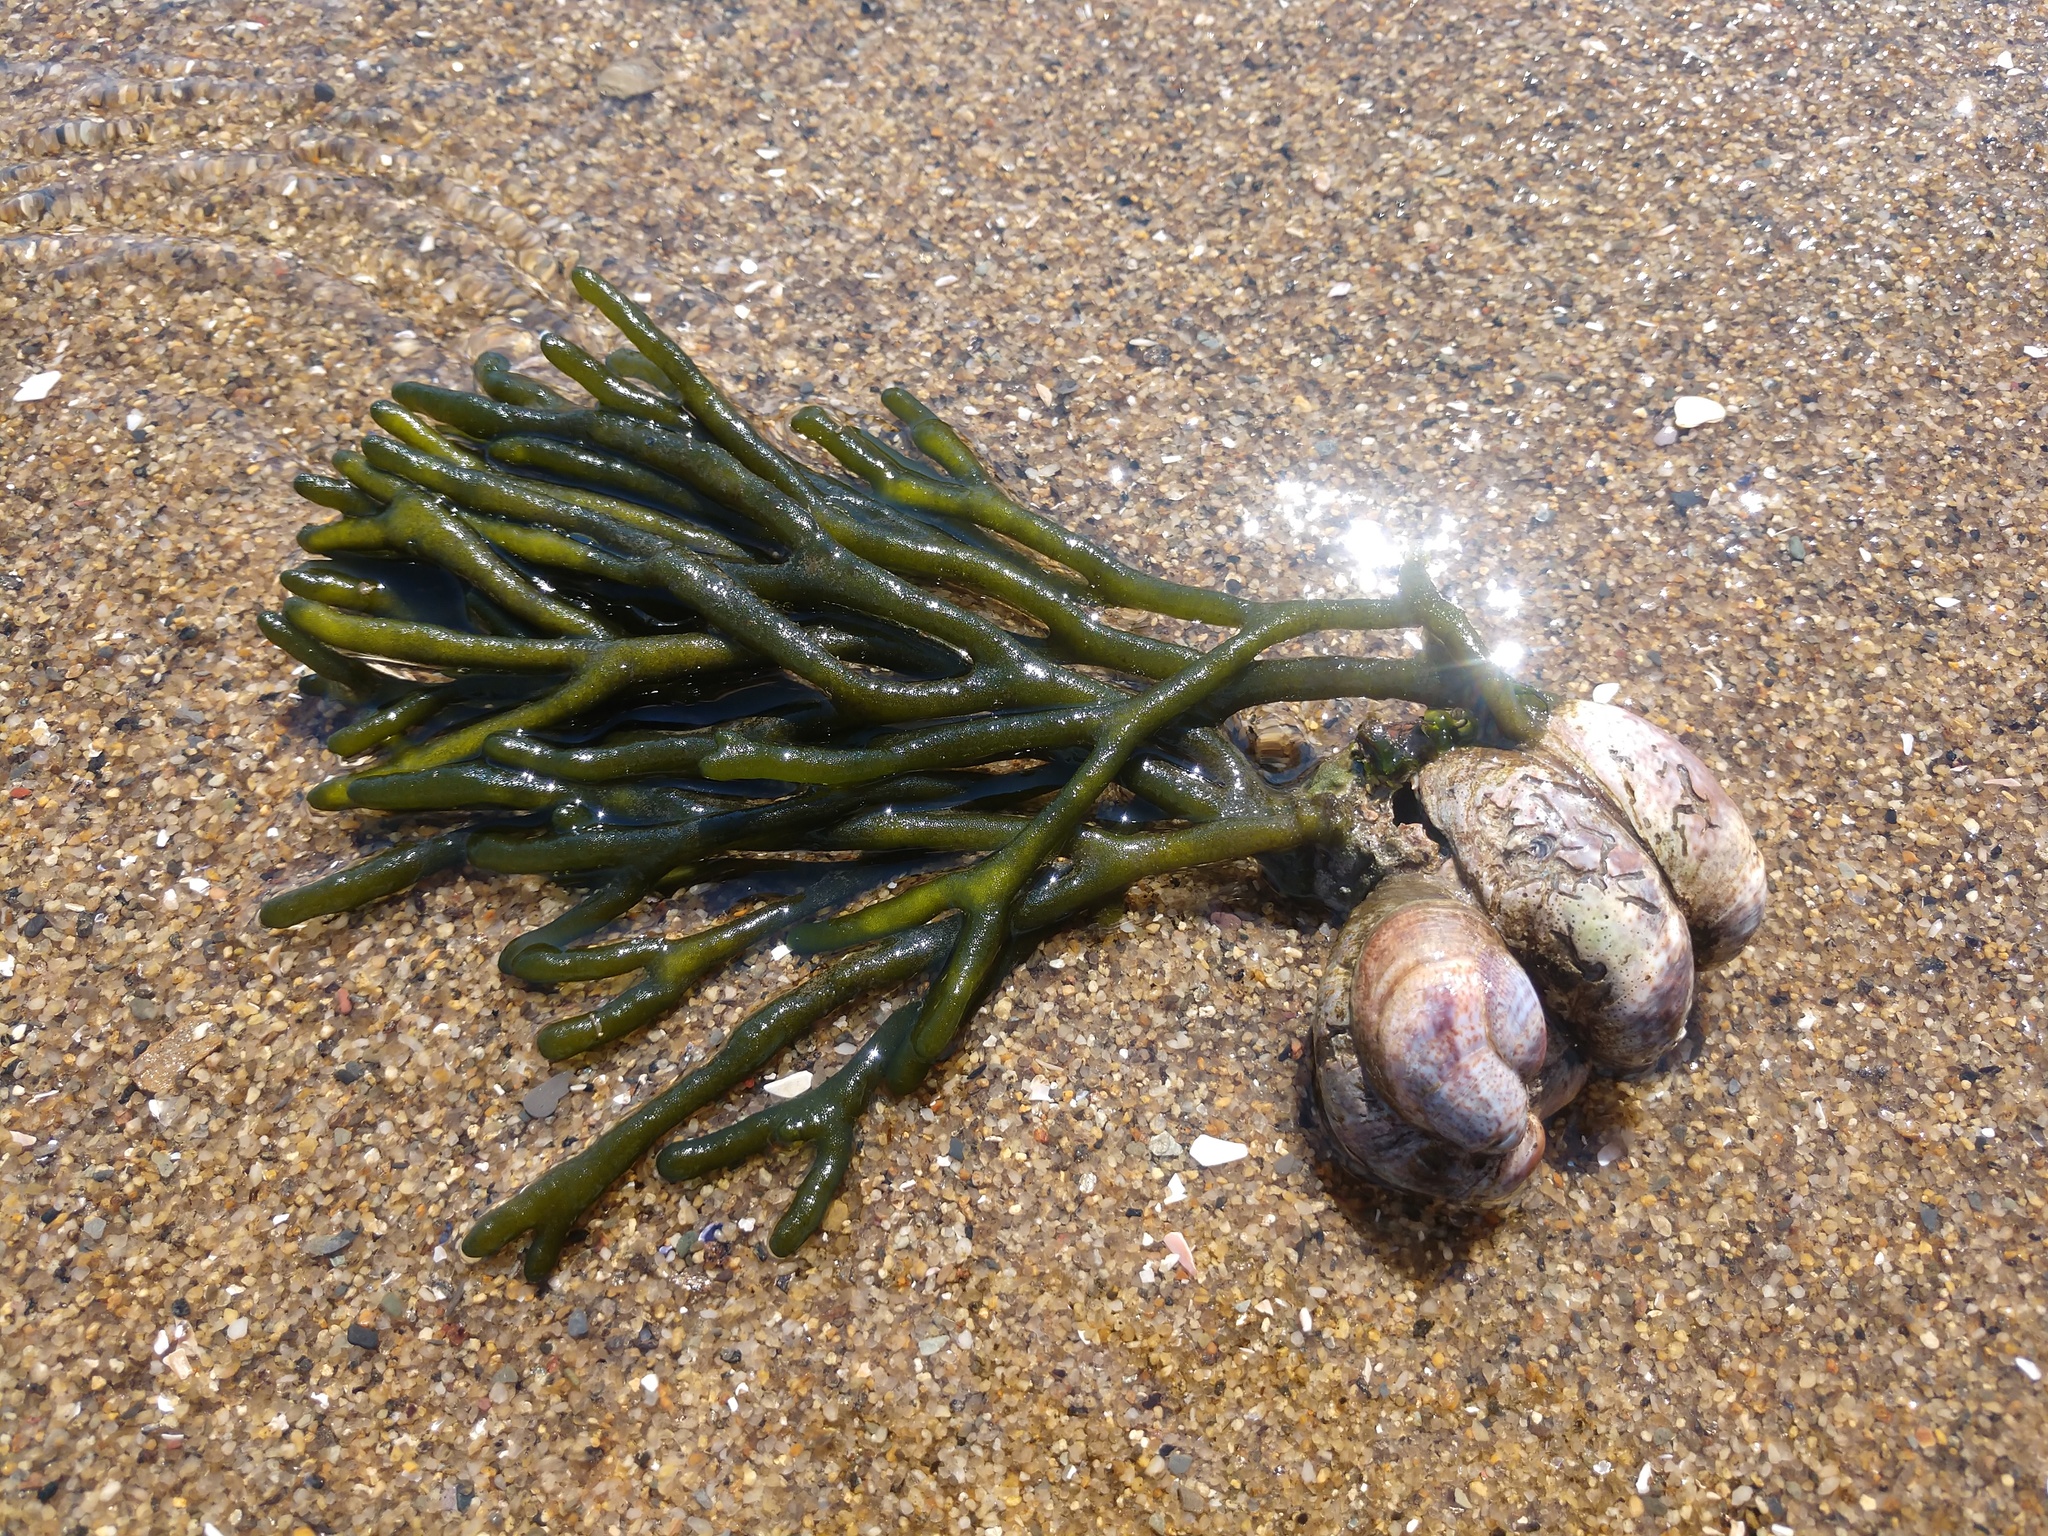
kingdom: Plantae
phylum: Chlorophyta
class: Ulvophyceae
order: Bryopsidales
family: Codiaceae
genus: Codium
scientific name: Codium fragile
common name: Dead man's fingers
